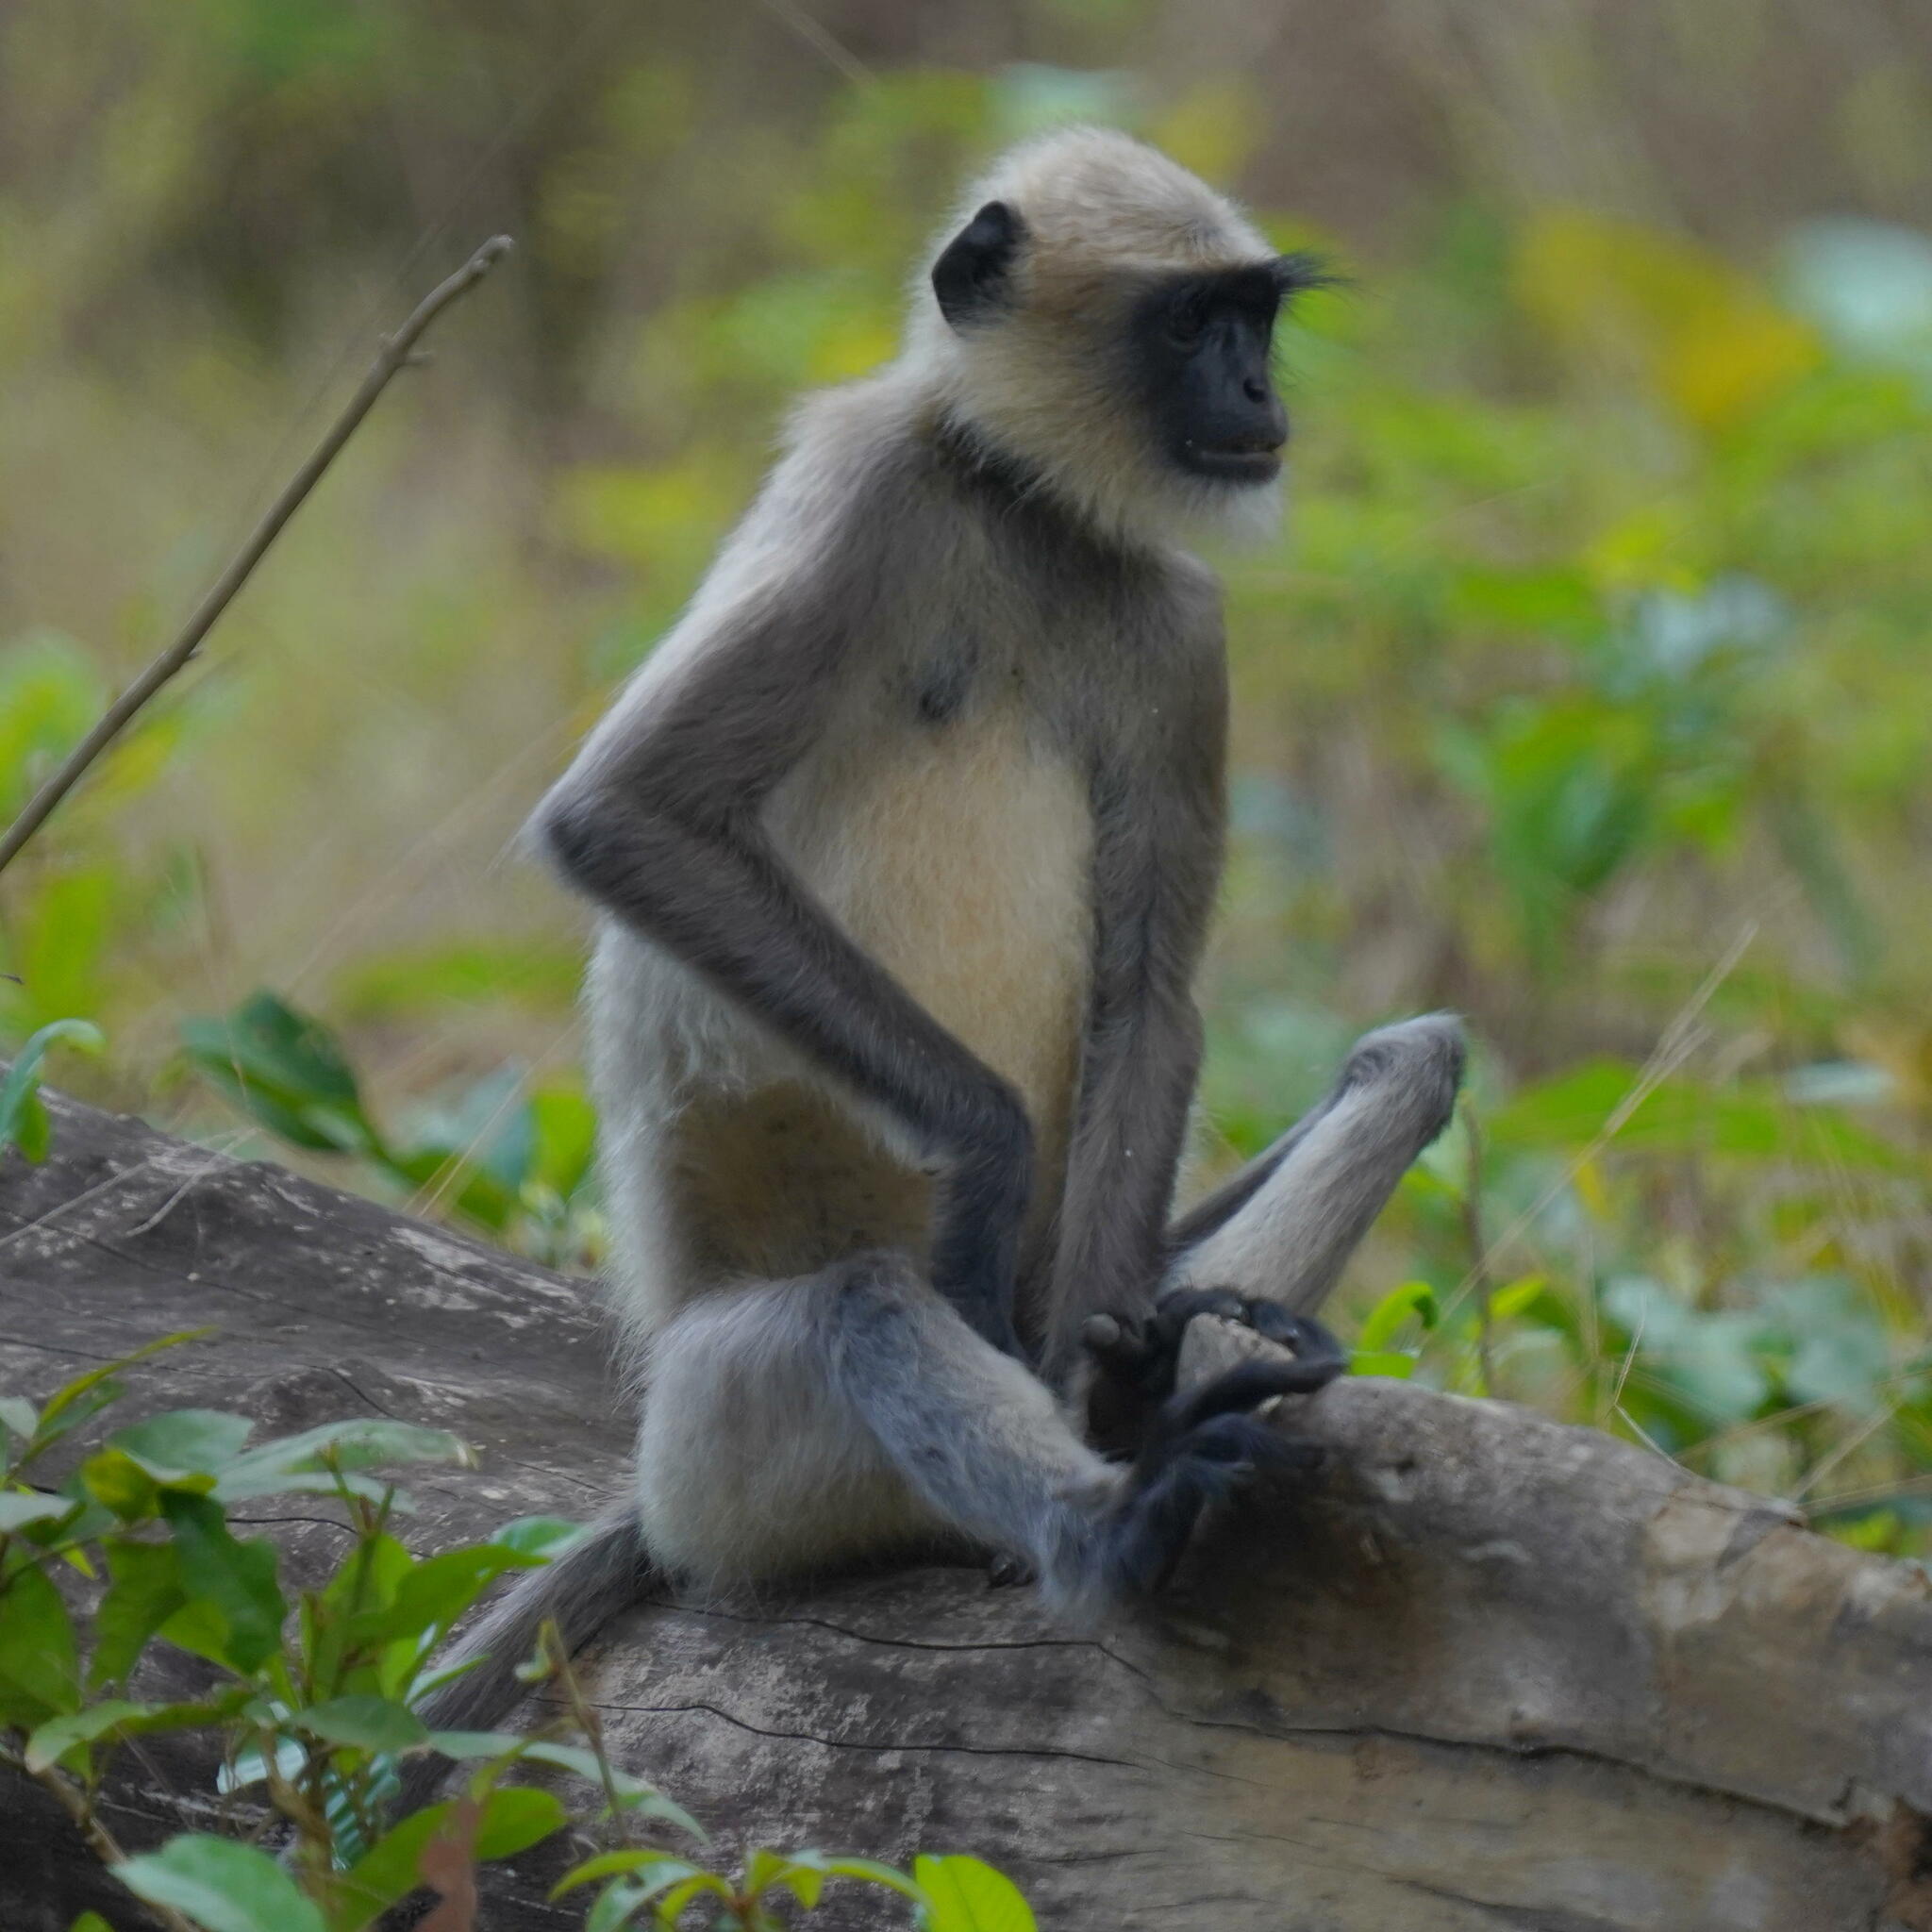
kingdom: Animalia
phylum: Chordata
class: Mammalia
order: Primates
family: Cercopithecidae
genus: Semnopithecus
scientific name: Semnopithecus hypoleucos
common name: Black-footed gray langur
